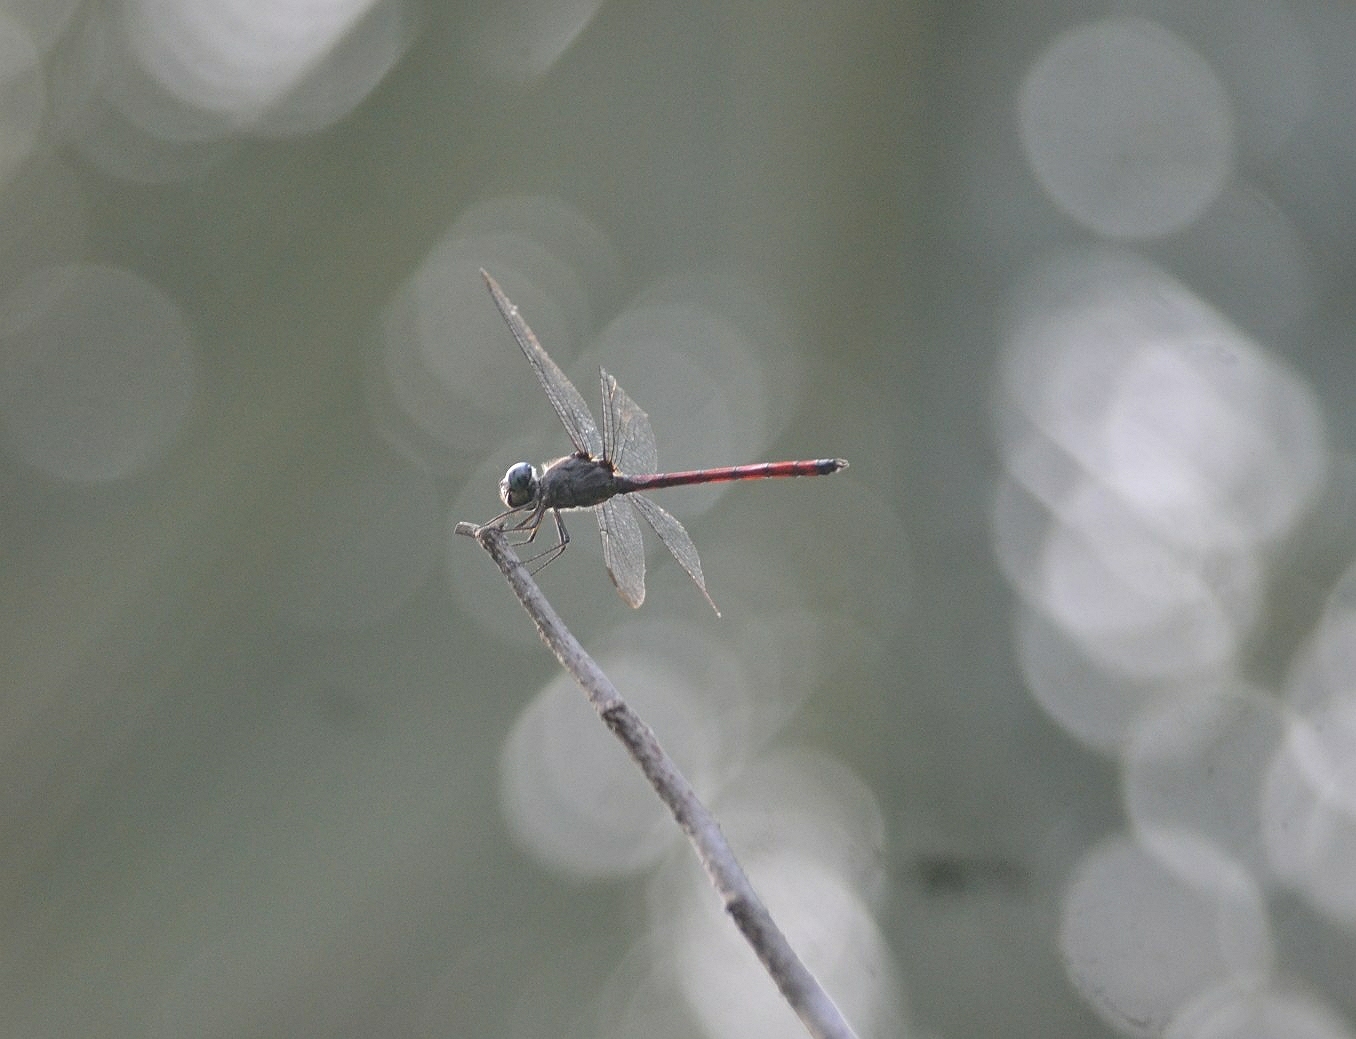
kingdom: Animalia
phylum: Arthropoda
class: Insecta
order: Odonata
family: Libellulidae
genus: Lathrecista
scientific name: Lathrecista asiatica
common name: Scarlet grenadier
